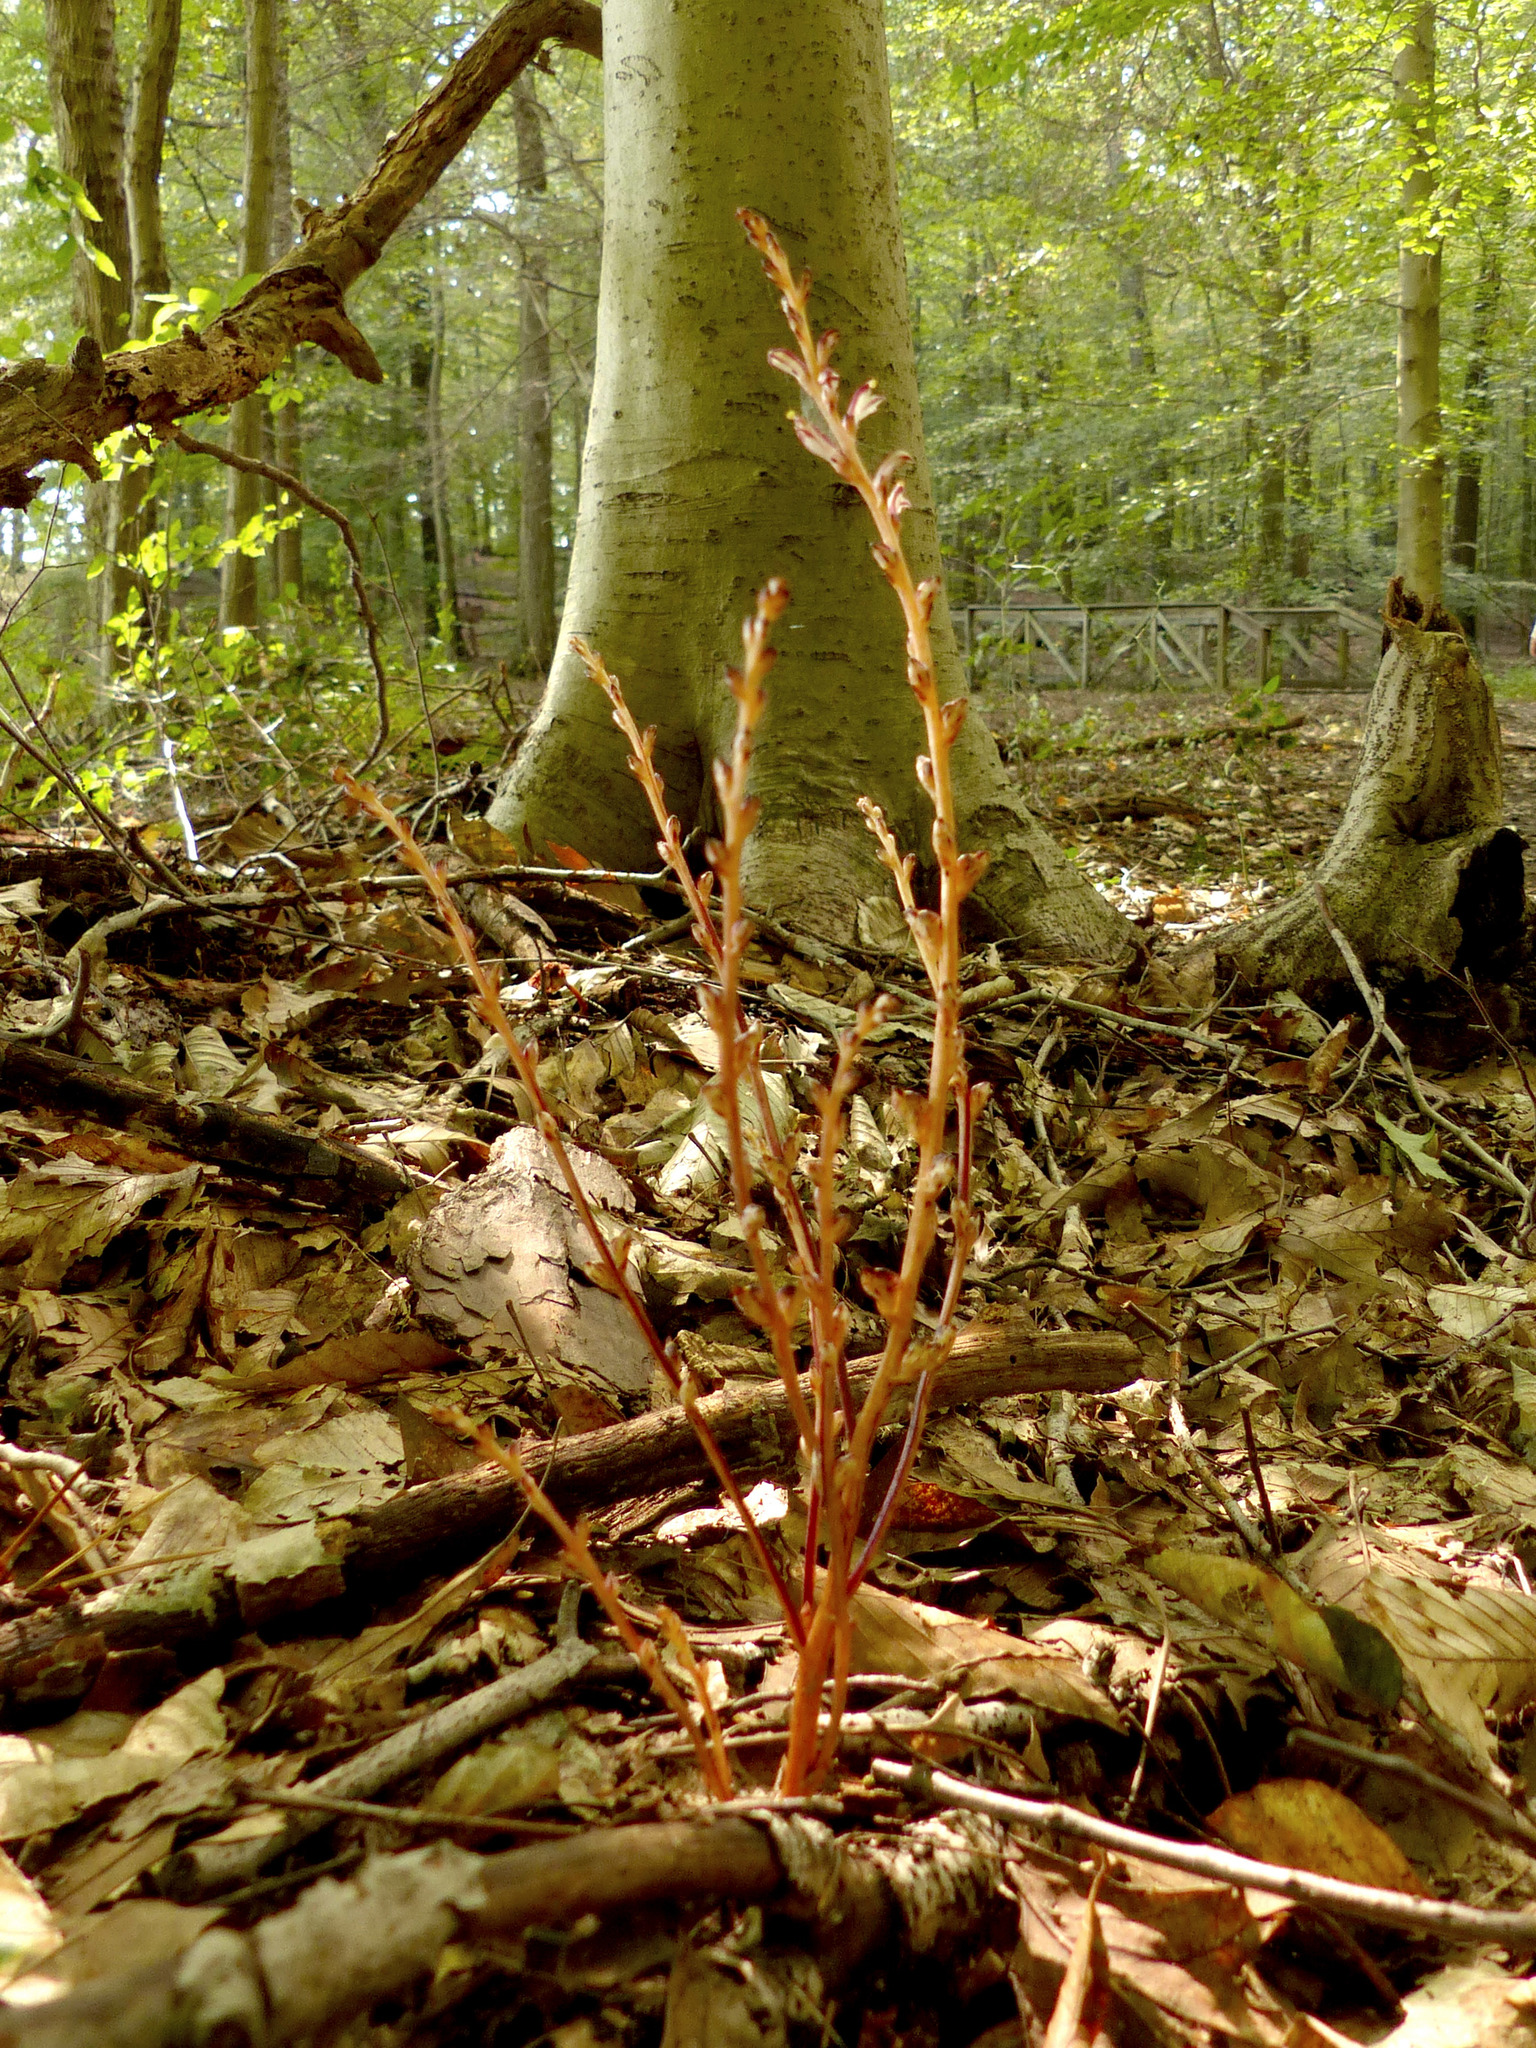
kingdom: Plantae
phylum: Tracheophyta
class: Magnoliopsida
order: Lamiales
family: Orobanchaceae
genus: Epifagus
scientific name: Epifagus virginiana
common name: Beechdrops
